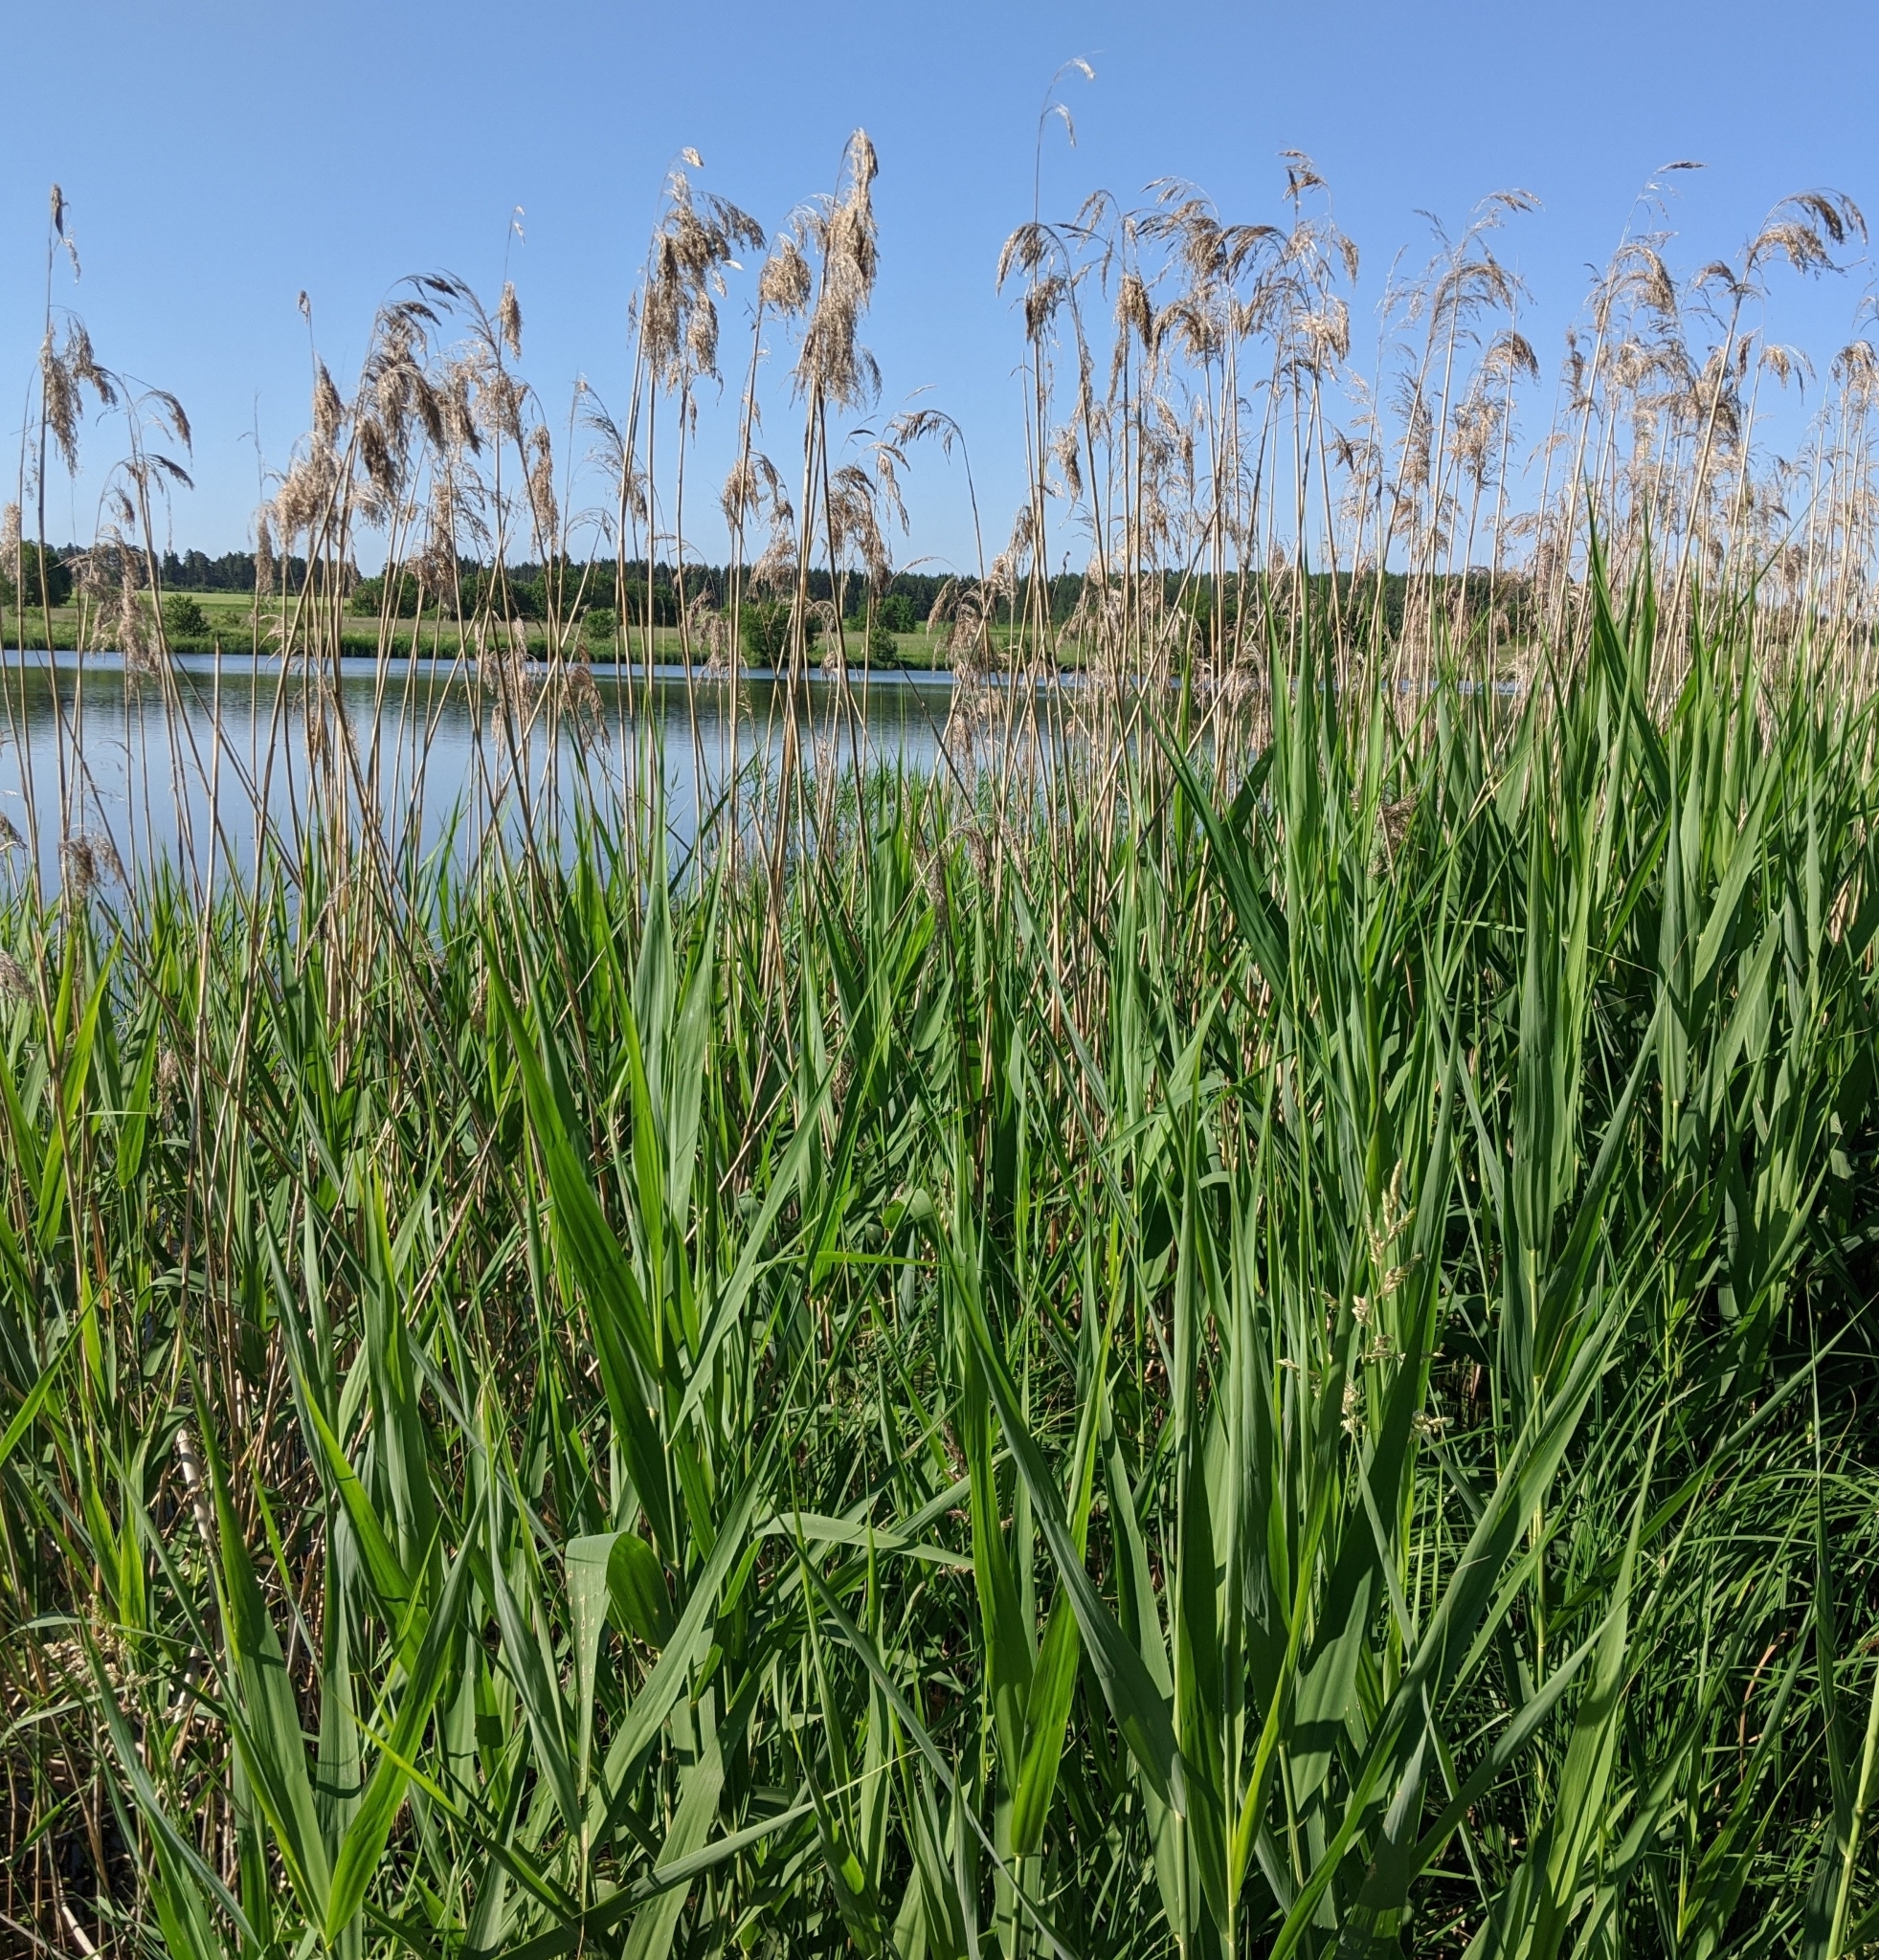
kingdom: Plantae
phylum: Tracheophyta
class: Liliopsida
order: Poales
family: Poaceae
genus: Phragmites
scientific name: Phragmites australis
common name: Common reed
